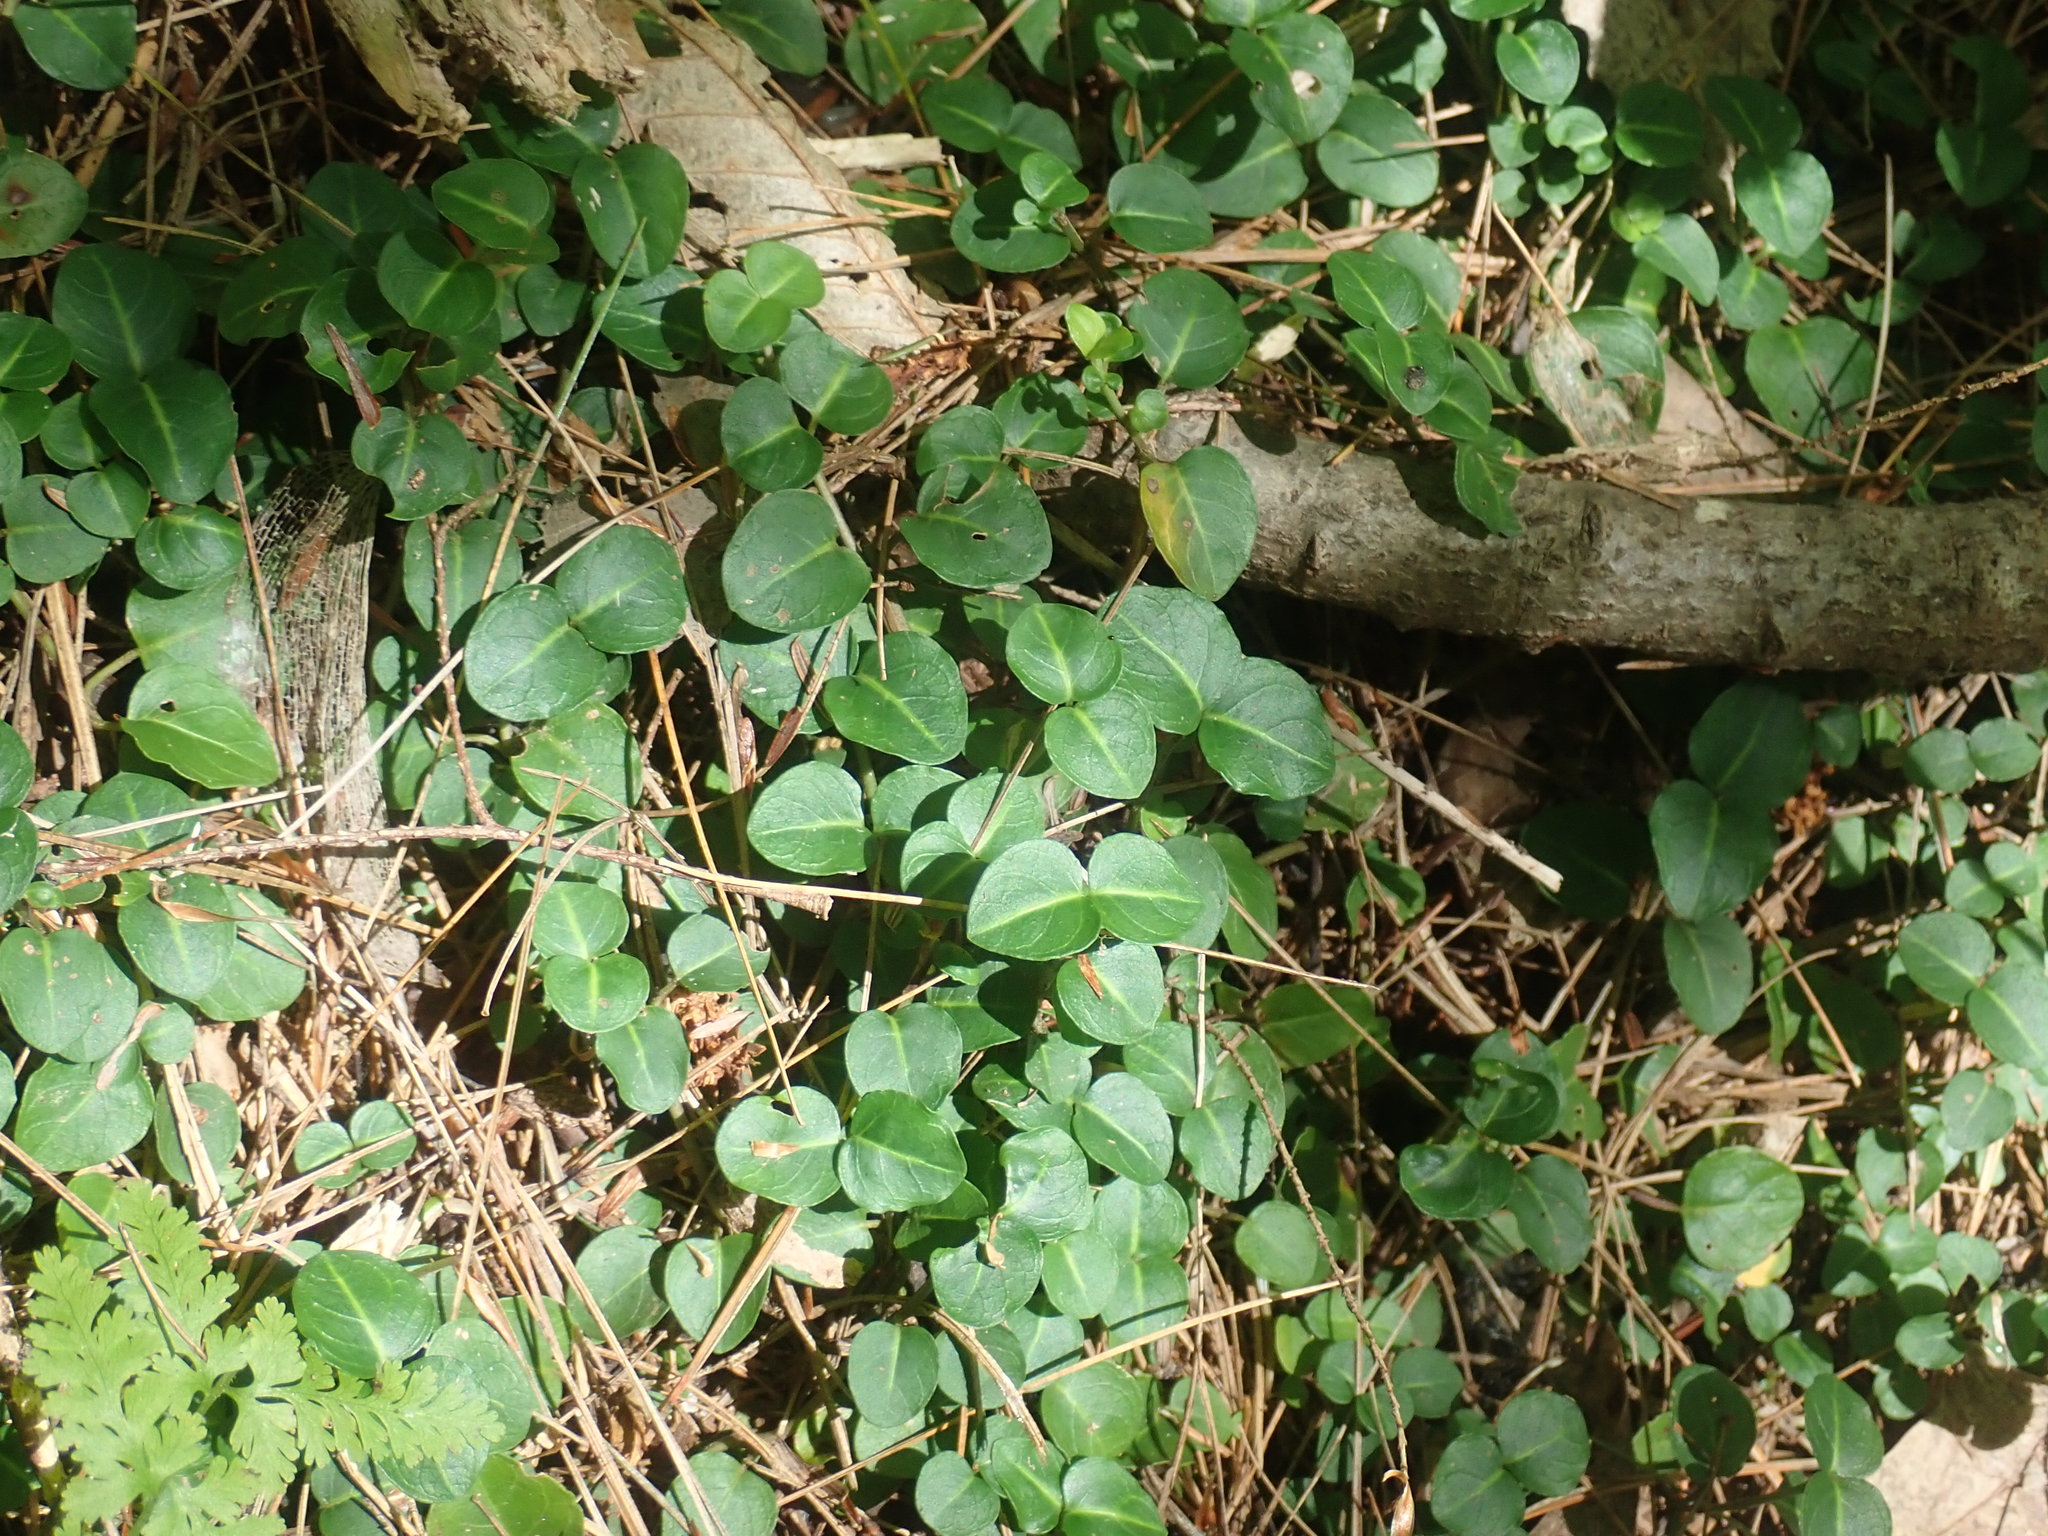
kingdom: Plantae
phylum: Tracheophyta
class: Magnoliopsida
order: Gentianales
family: Rubiaceae
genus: Mitchella
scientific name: Mitchella repens
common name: Partridge-berry
